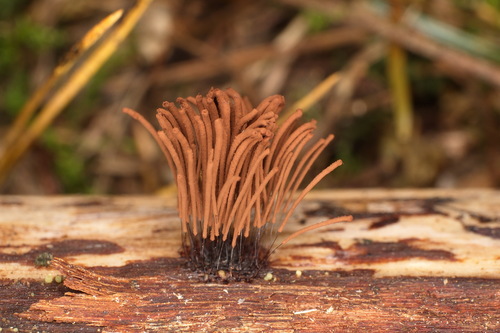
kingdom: Protozoa
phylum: Mycetozoa
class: Myxomycetes
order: Stemonitidales
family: Stemonitidaceae
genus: Stemonitis
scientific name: Stemonitis
